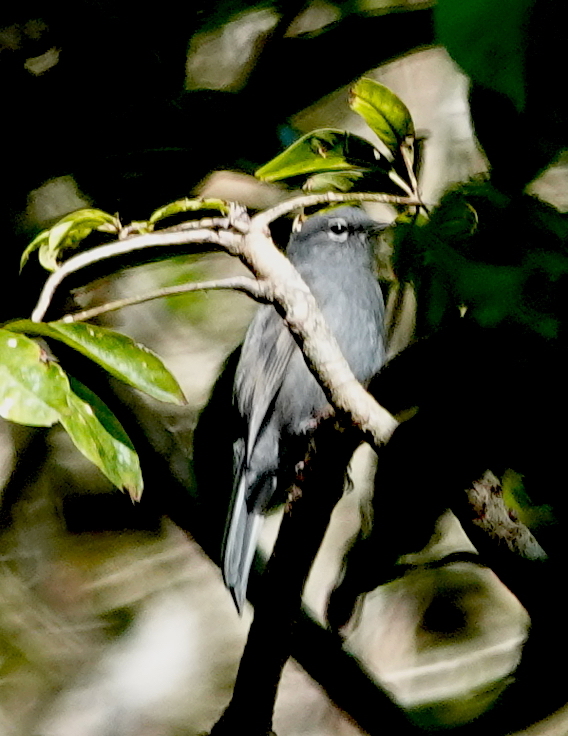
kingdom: Animalia
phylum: Chordata
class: Aves
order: Passeriformes
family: Turdidae
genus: Myadestes
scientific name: Myadestes unicolor
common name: Slate-colored solitaire
